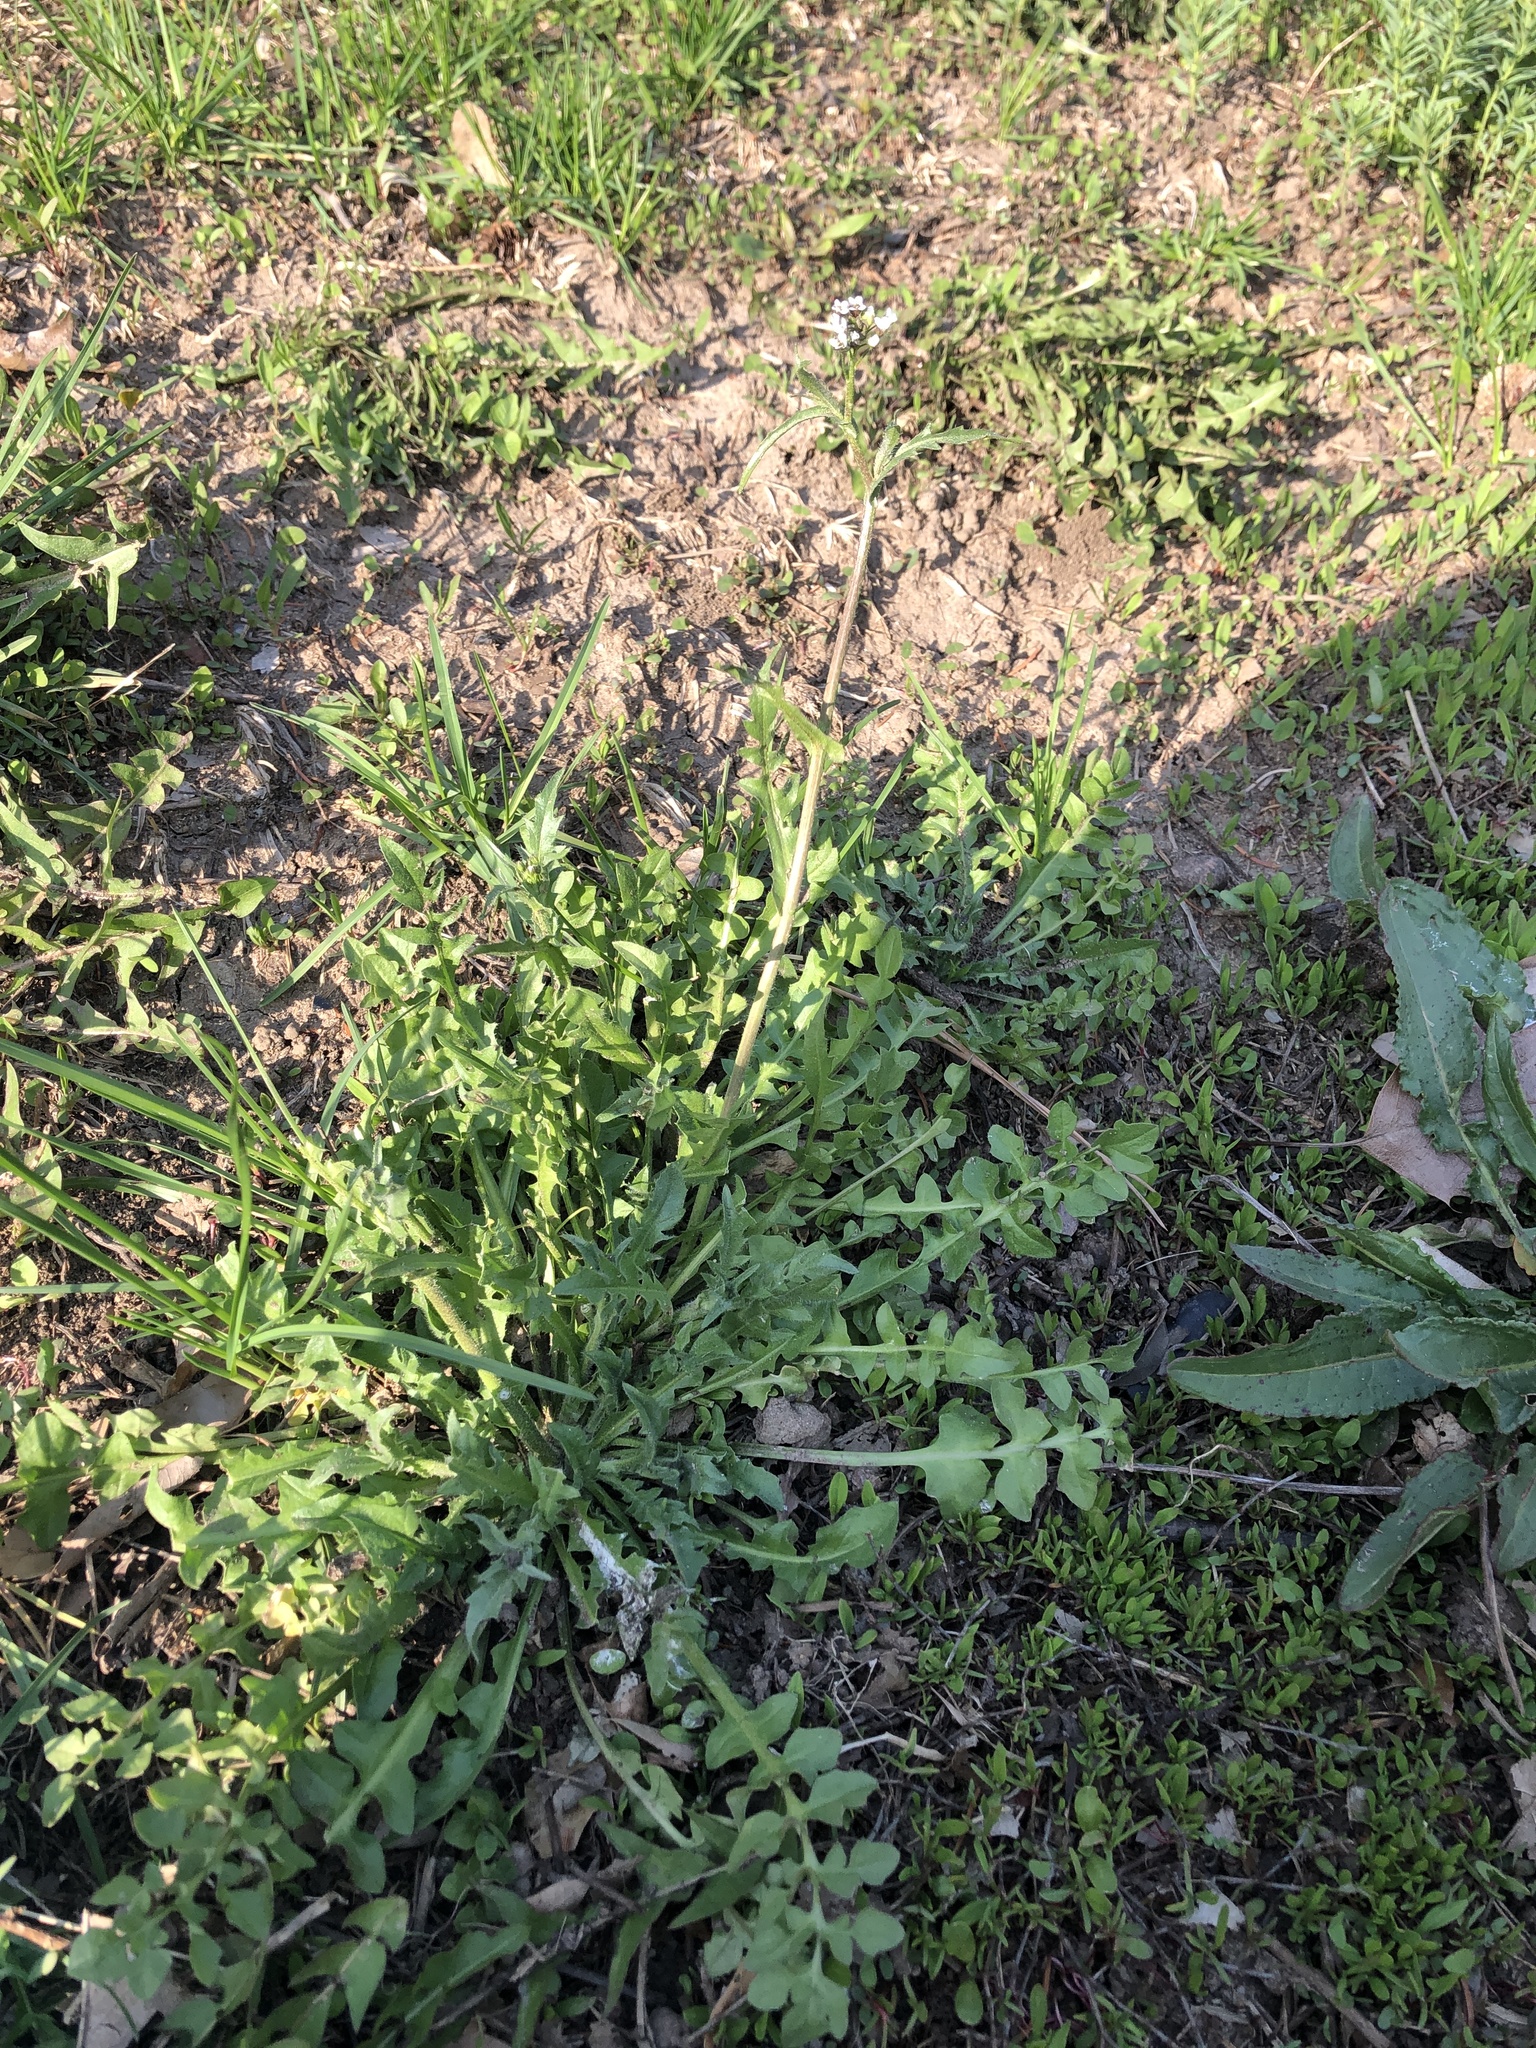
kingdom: Plantae
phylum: Tracheophyta
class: Magnoliopsida
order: Brassicales
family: Brassicaceae
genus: Capsella
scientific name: Capsella bursa-pastoris
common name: Shepherd's purse
